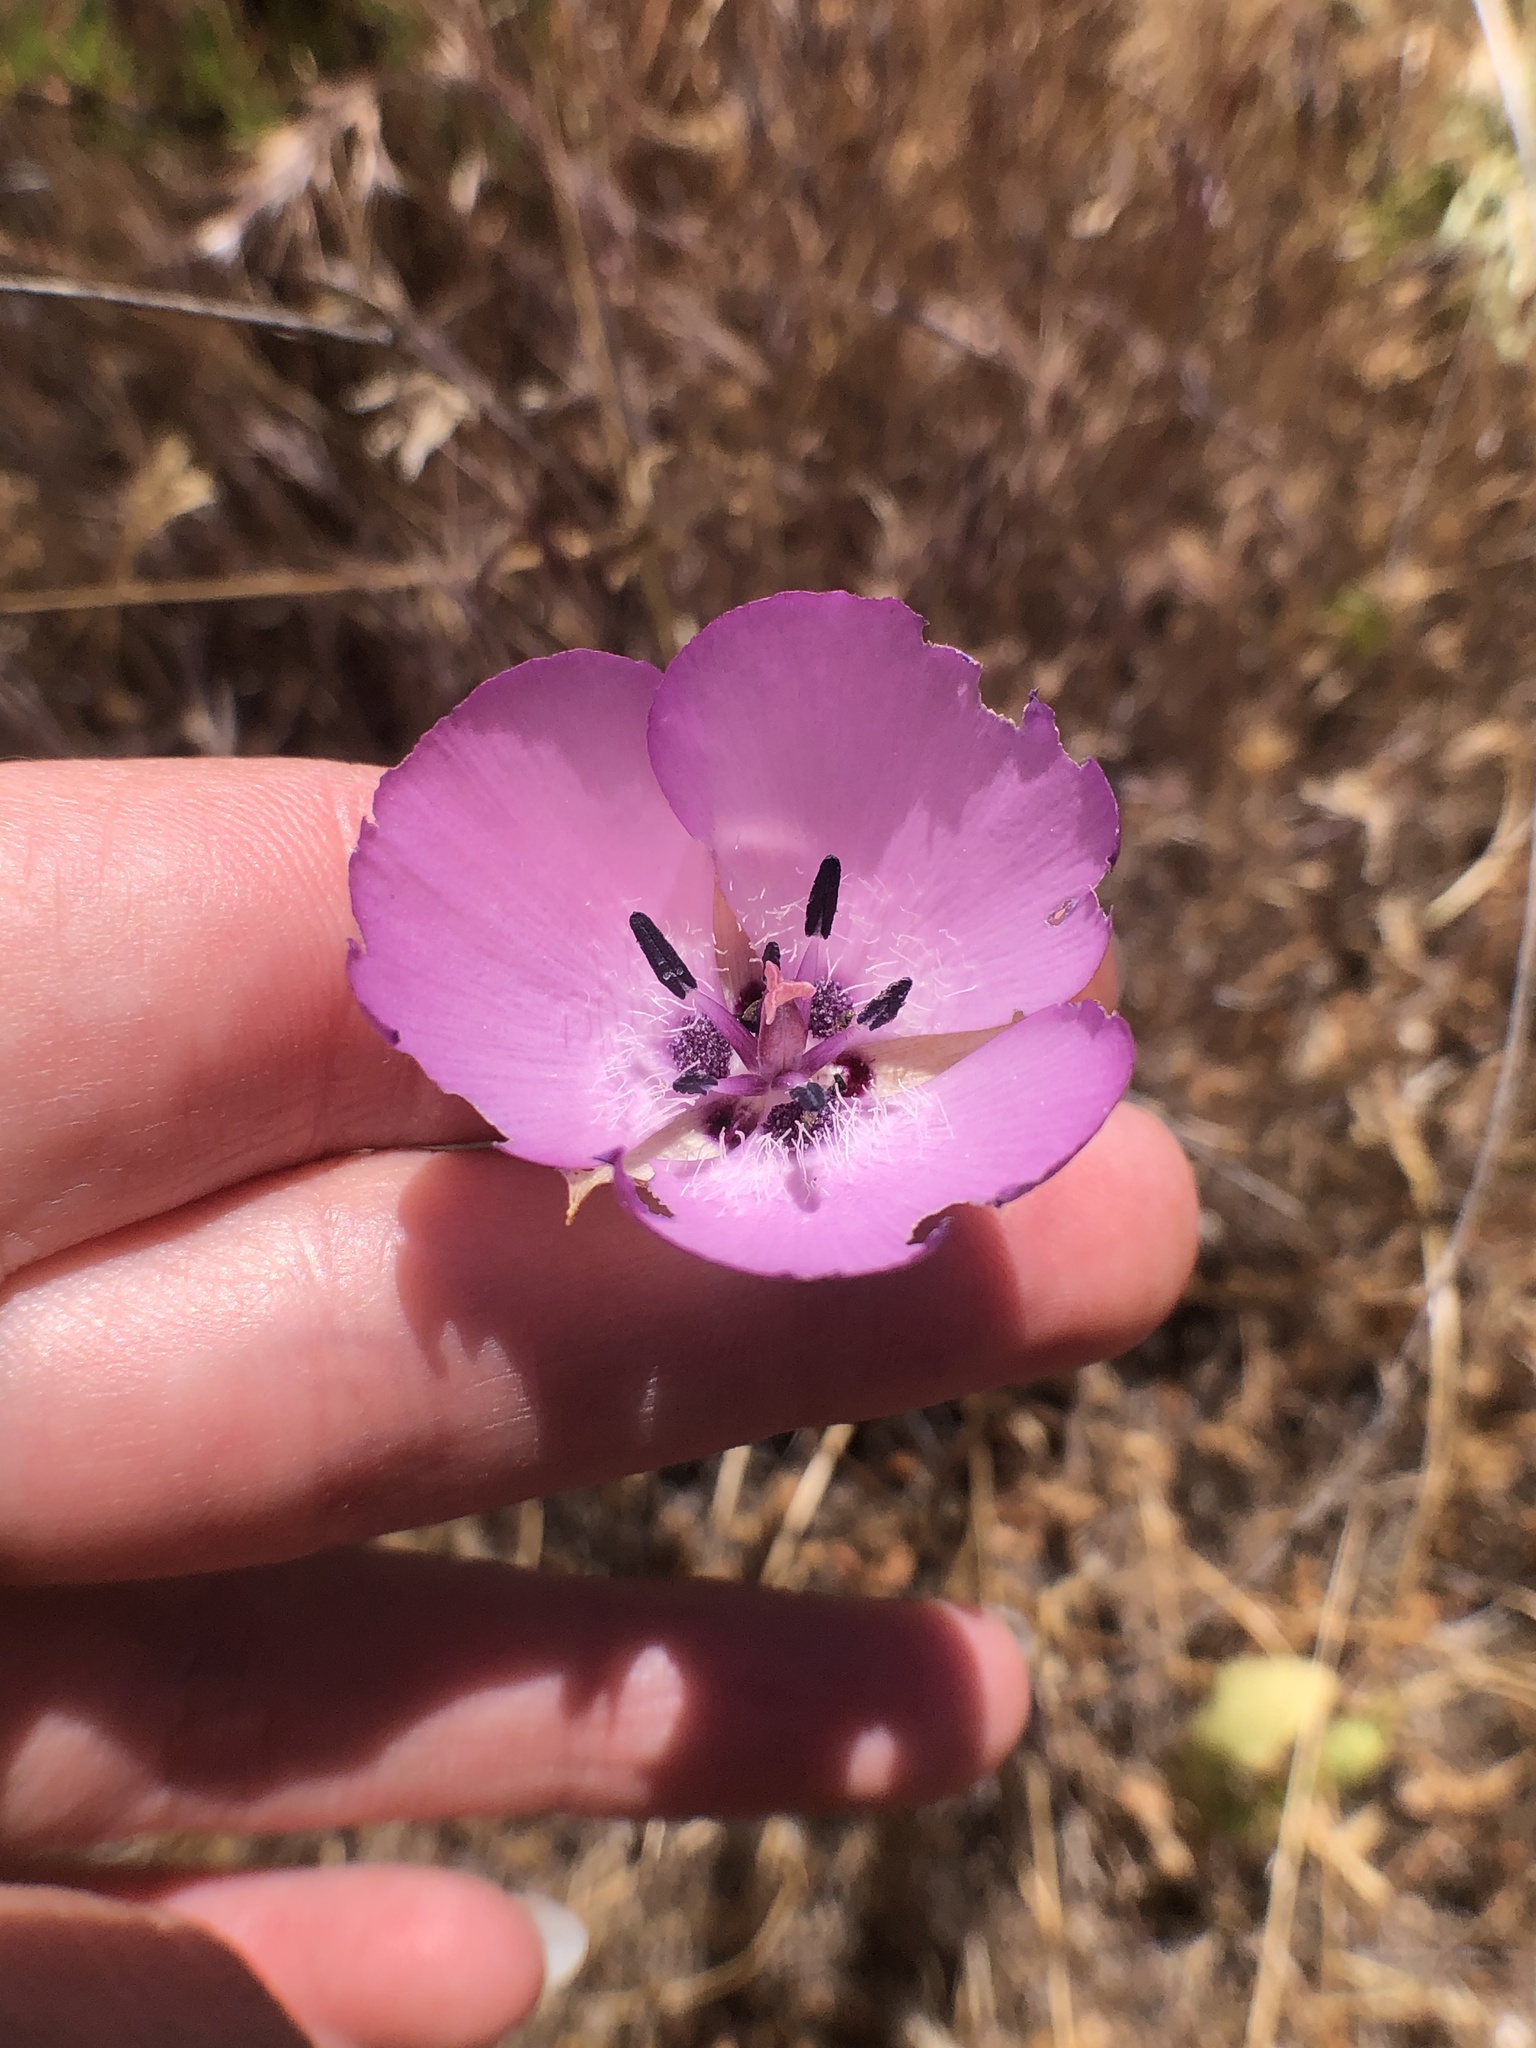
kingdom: Plantae
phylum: Tracheophyta
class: Liliopsida
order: Liliales
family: Liliaceae
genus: Calochortus
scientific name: Calochortus splendens
